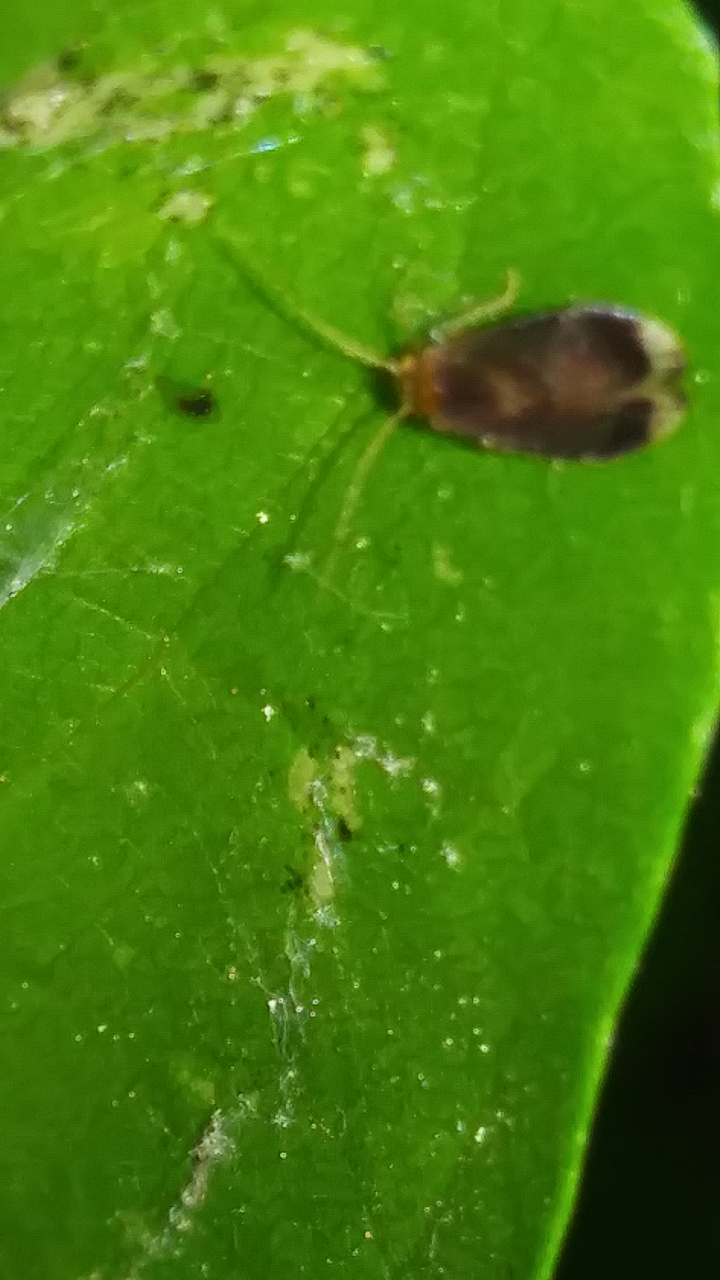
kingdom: Animalia
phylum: Arthropoda
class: Insecta
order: Psocodea
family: Amphipsocidae
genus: Polypsocus
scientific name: Polypsocus corruptus
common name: Corrupt barklouse
